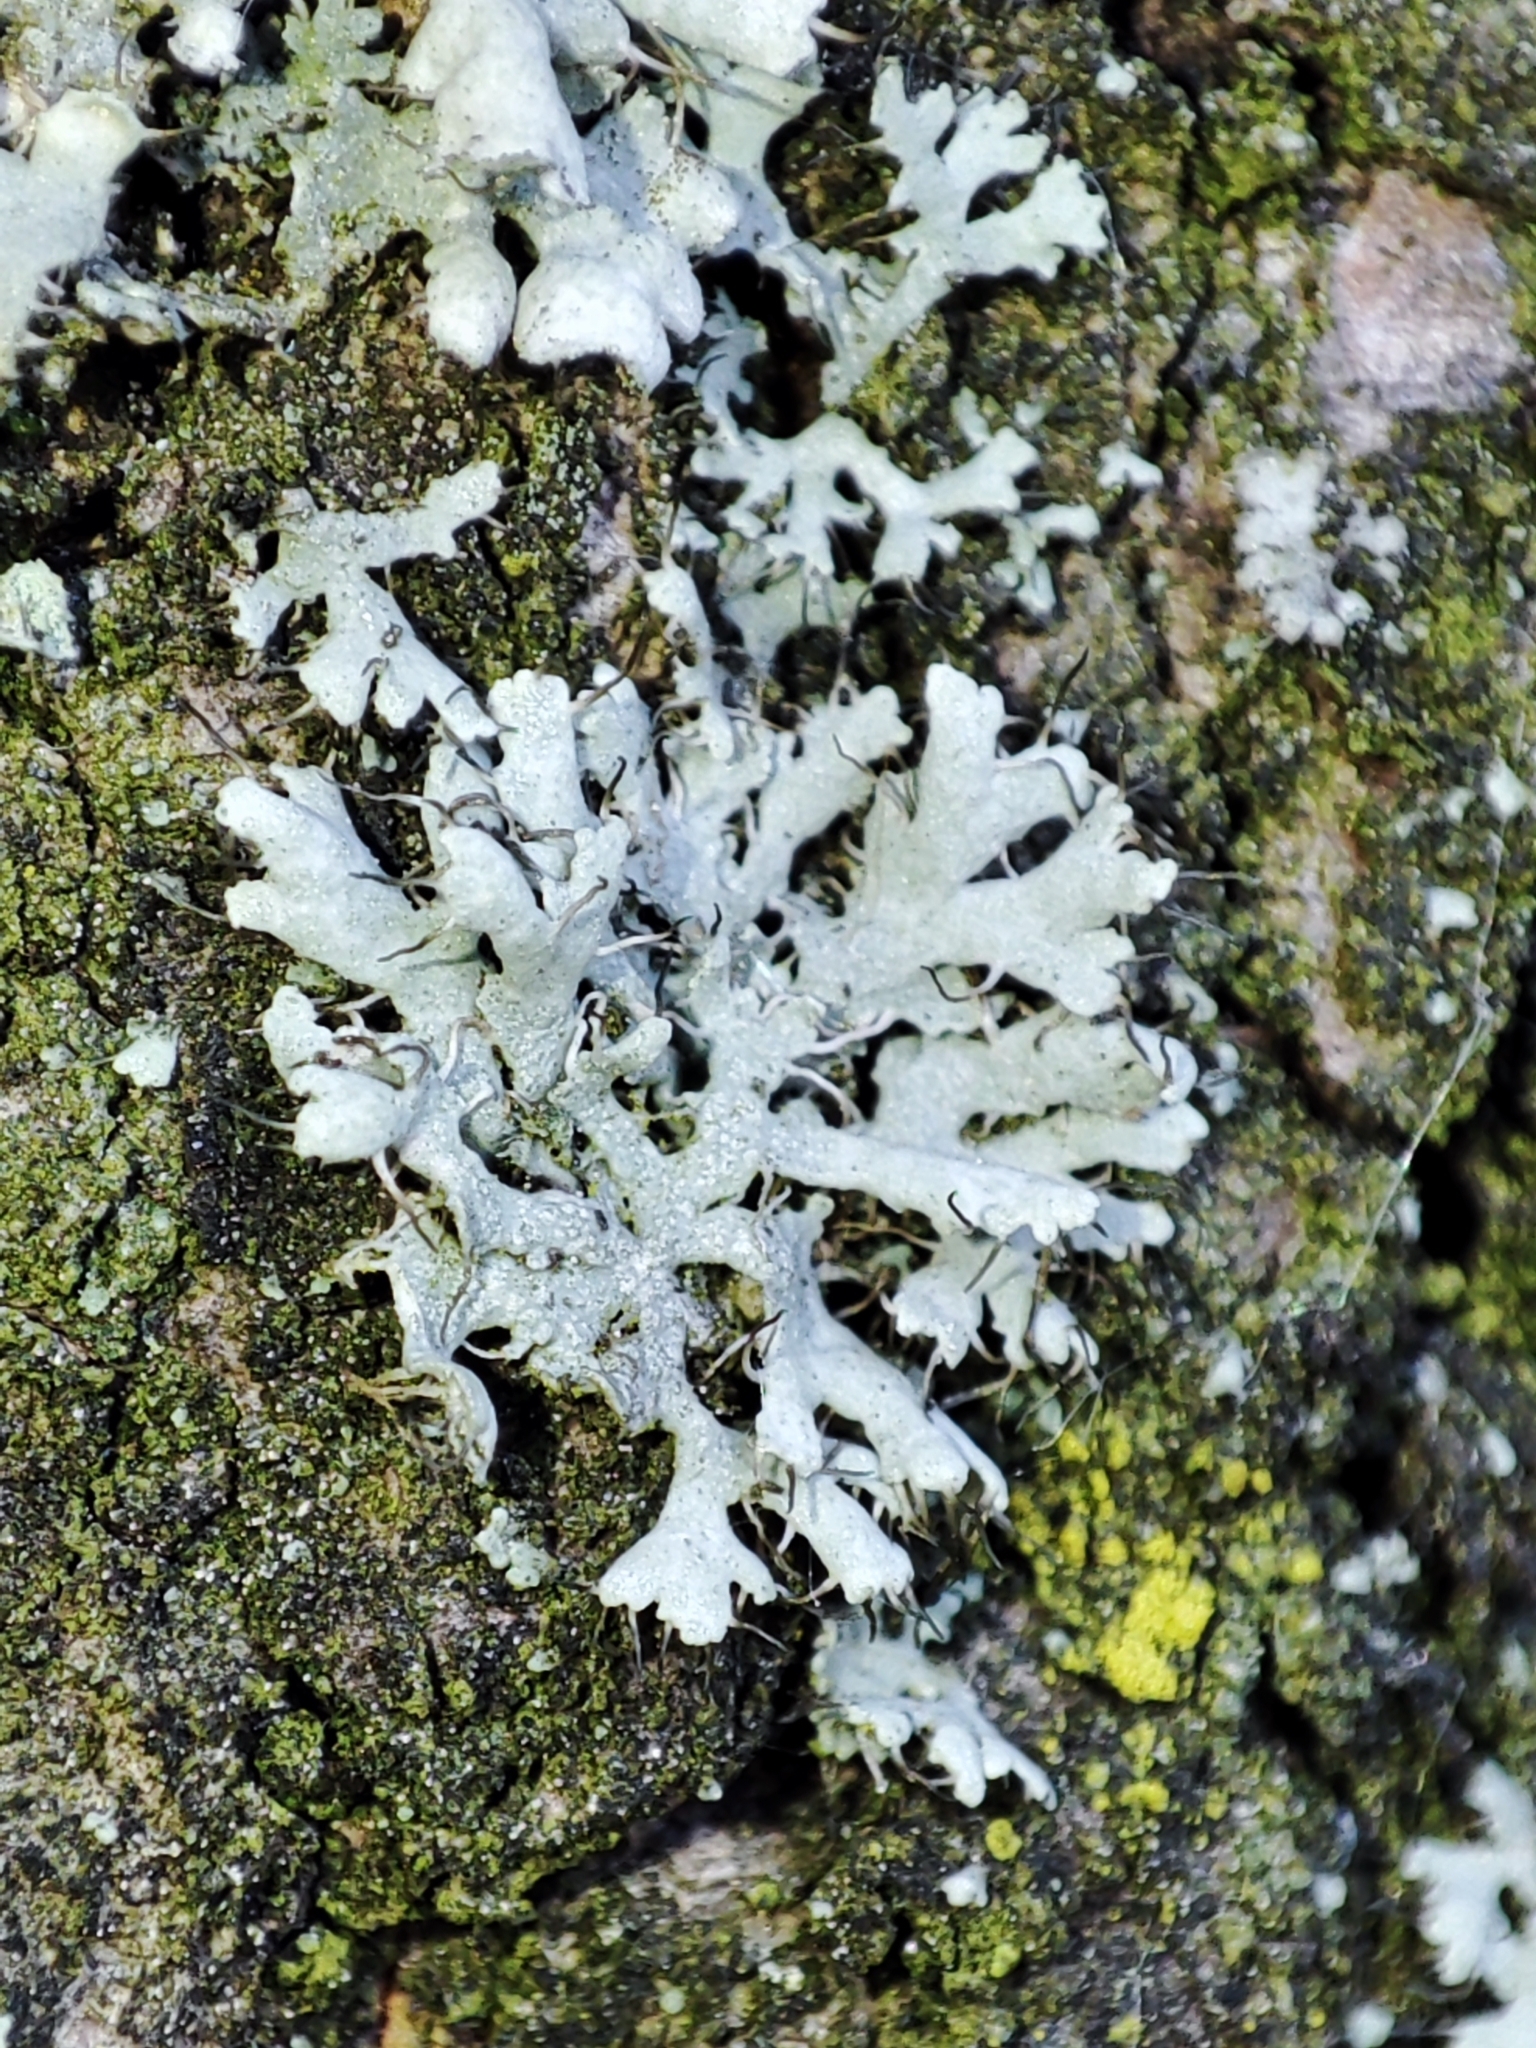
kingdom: Fungi
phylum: Ascomycota
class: Lecanoromycetes
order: Caliciales
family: Physciaceae
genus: Physcia
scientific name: Physcia adscendens
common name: Hooded rosette lichen
